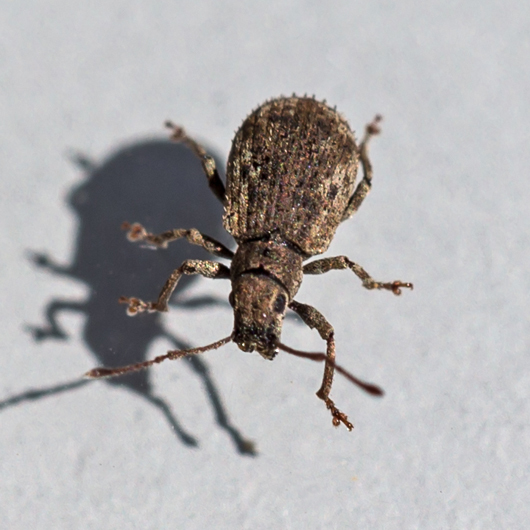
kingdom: Animalia
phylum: Arthropoda
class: Insecta
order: Coleoptera
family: Curculionidae
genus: Pseudoedophrys
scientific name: Pseudoedophrys hilleri
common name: Weevil
